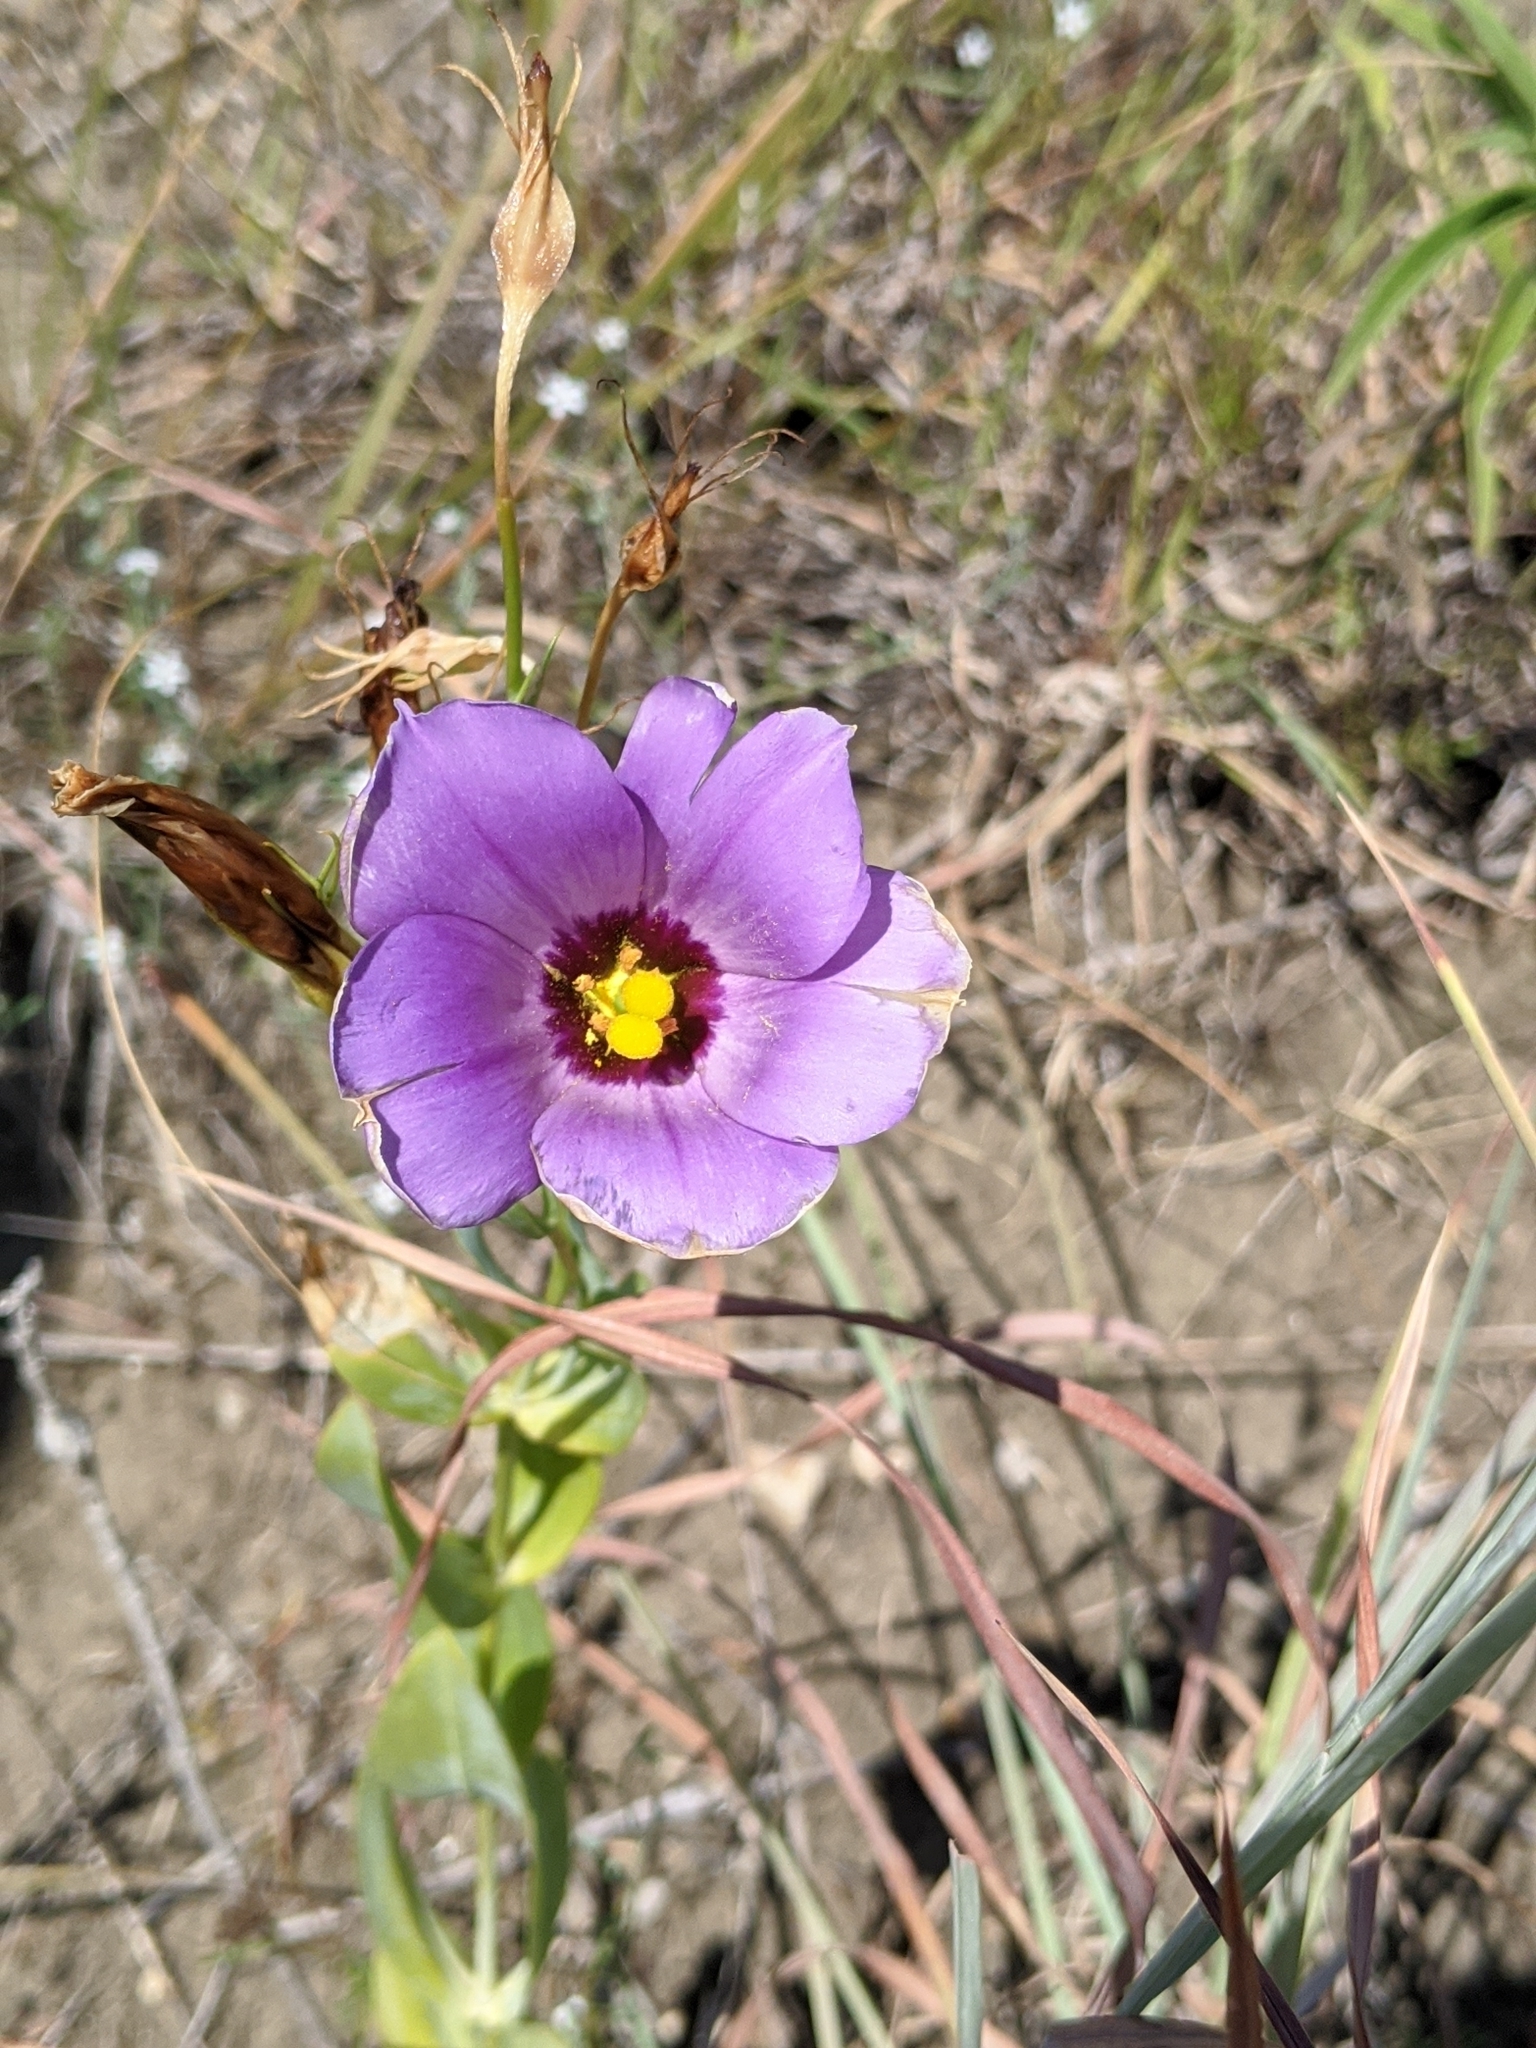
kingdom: Plantae
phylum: Tracheophyta
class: Magnoliopsida
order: Gentianales
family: Gentianaceae
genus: Eustoma
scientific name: Eustoma russellianum
